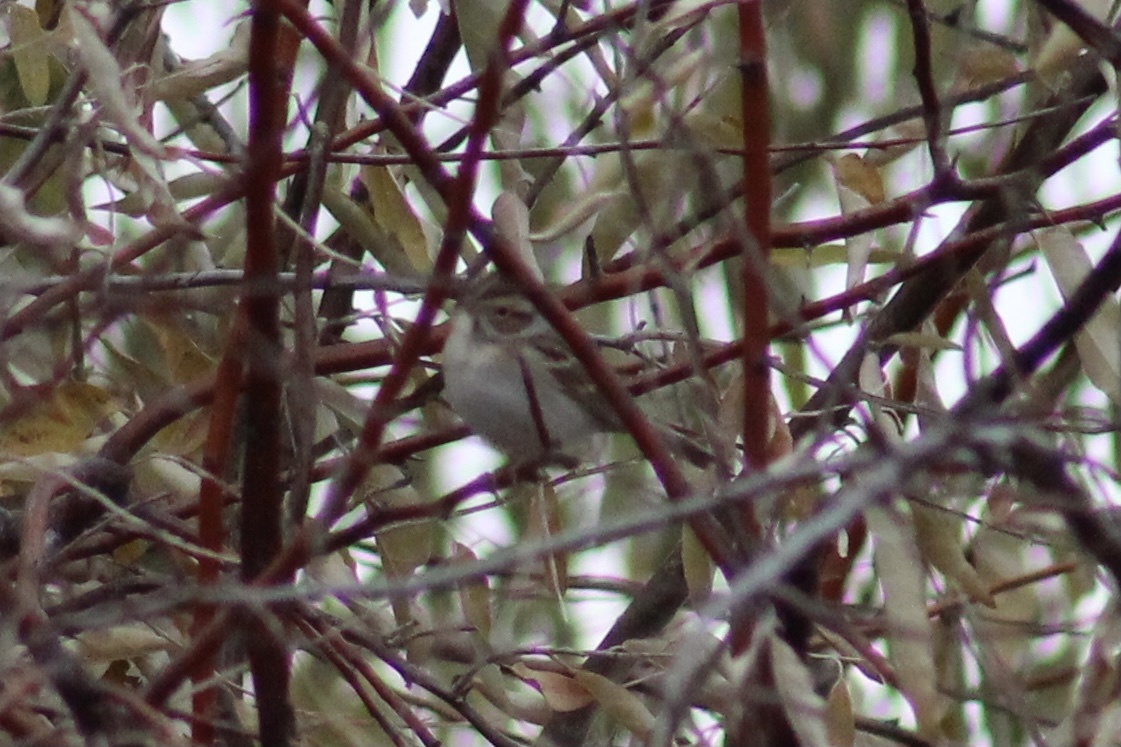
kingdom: Animalia
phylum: Chordata
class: Aves
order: Passeriformes
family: Passerellidae
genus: Spizella
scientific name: Spizella pallida
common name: Clay-colored sparrow
